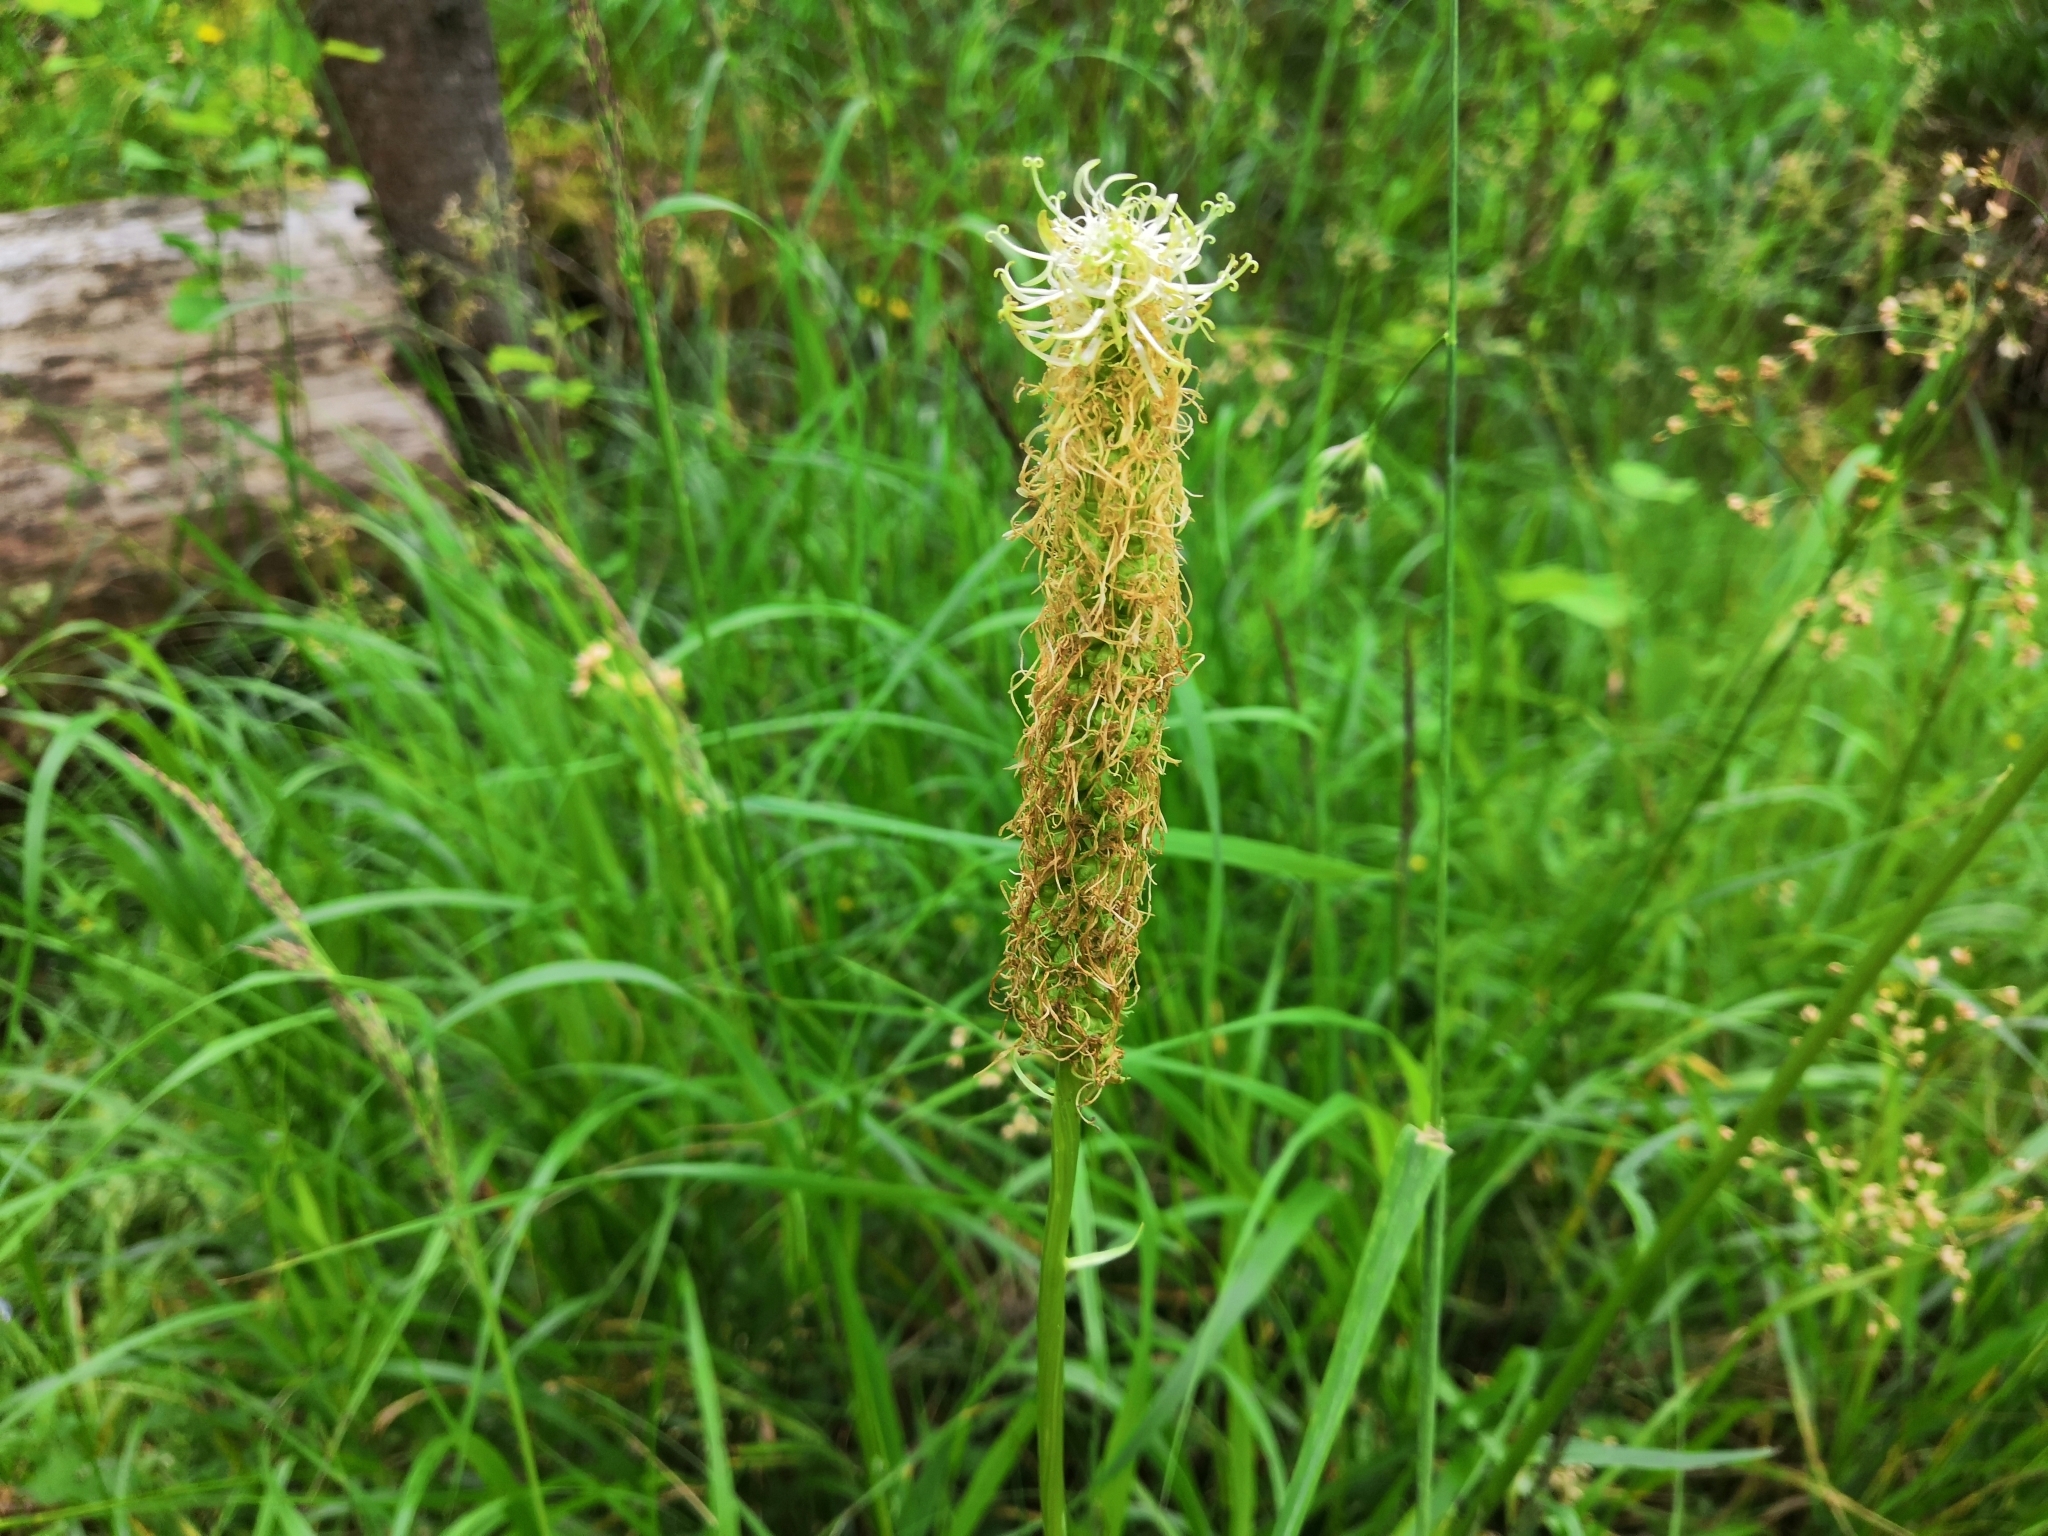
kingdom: Plantae
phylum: Tracheophyta
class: Magnoliopsida
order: Asterales
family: Campanulaceae
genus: Phyteuma
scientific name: Phyteuma spicatum
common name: Spiked rampion
